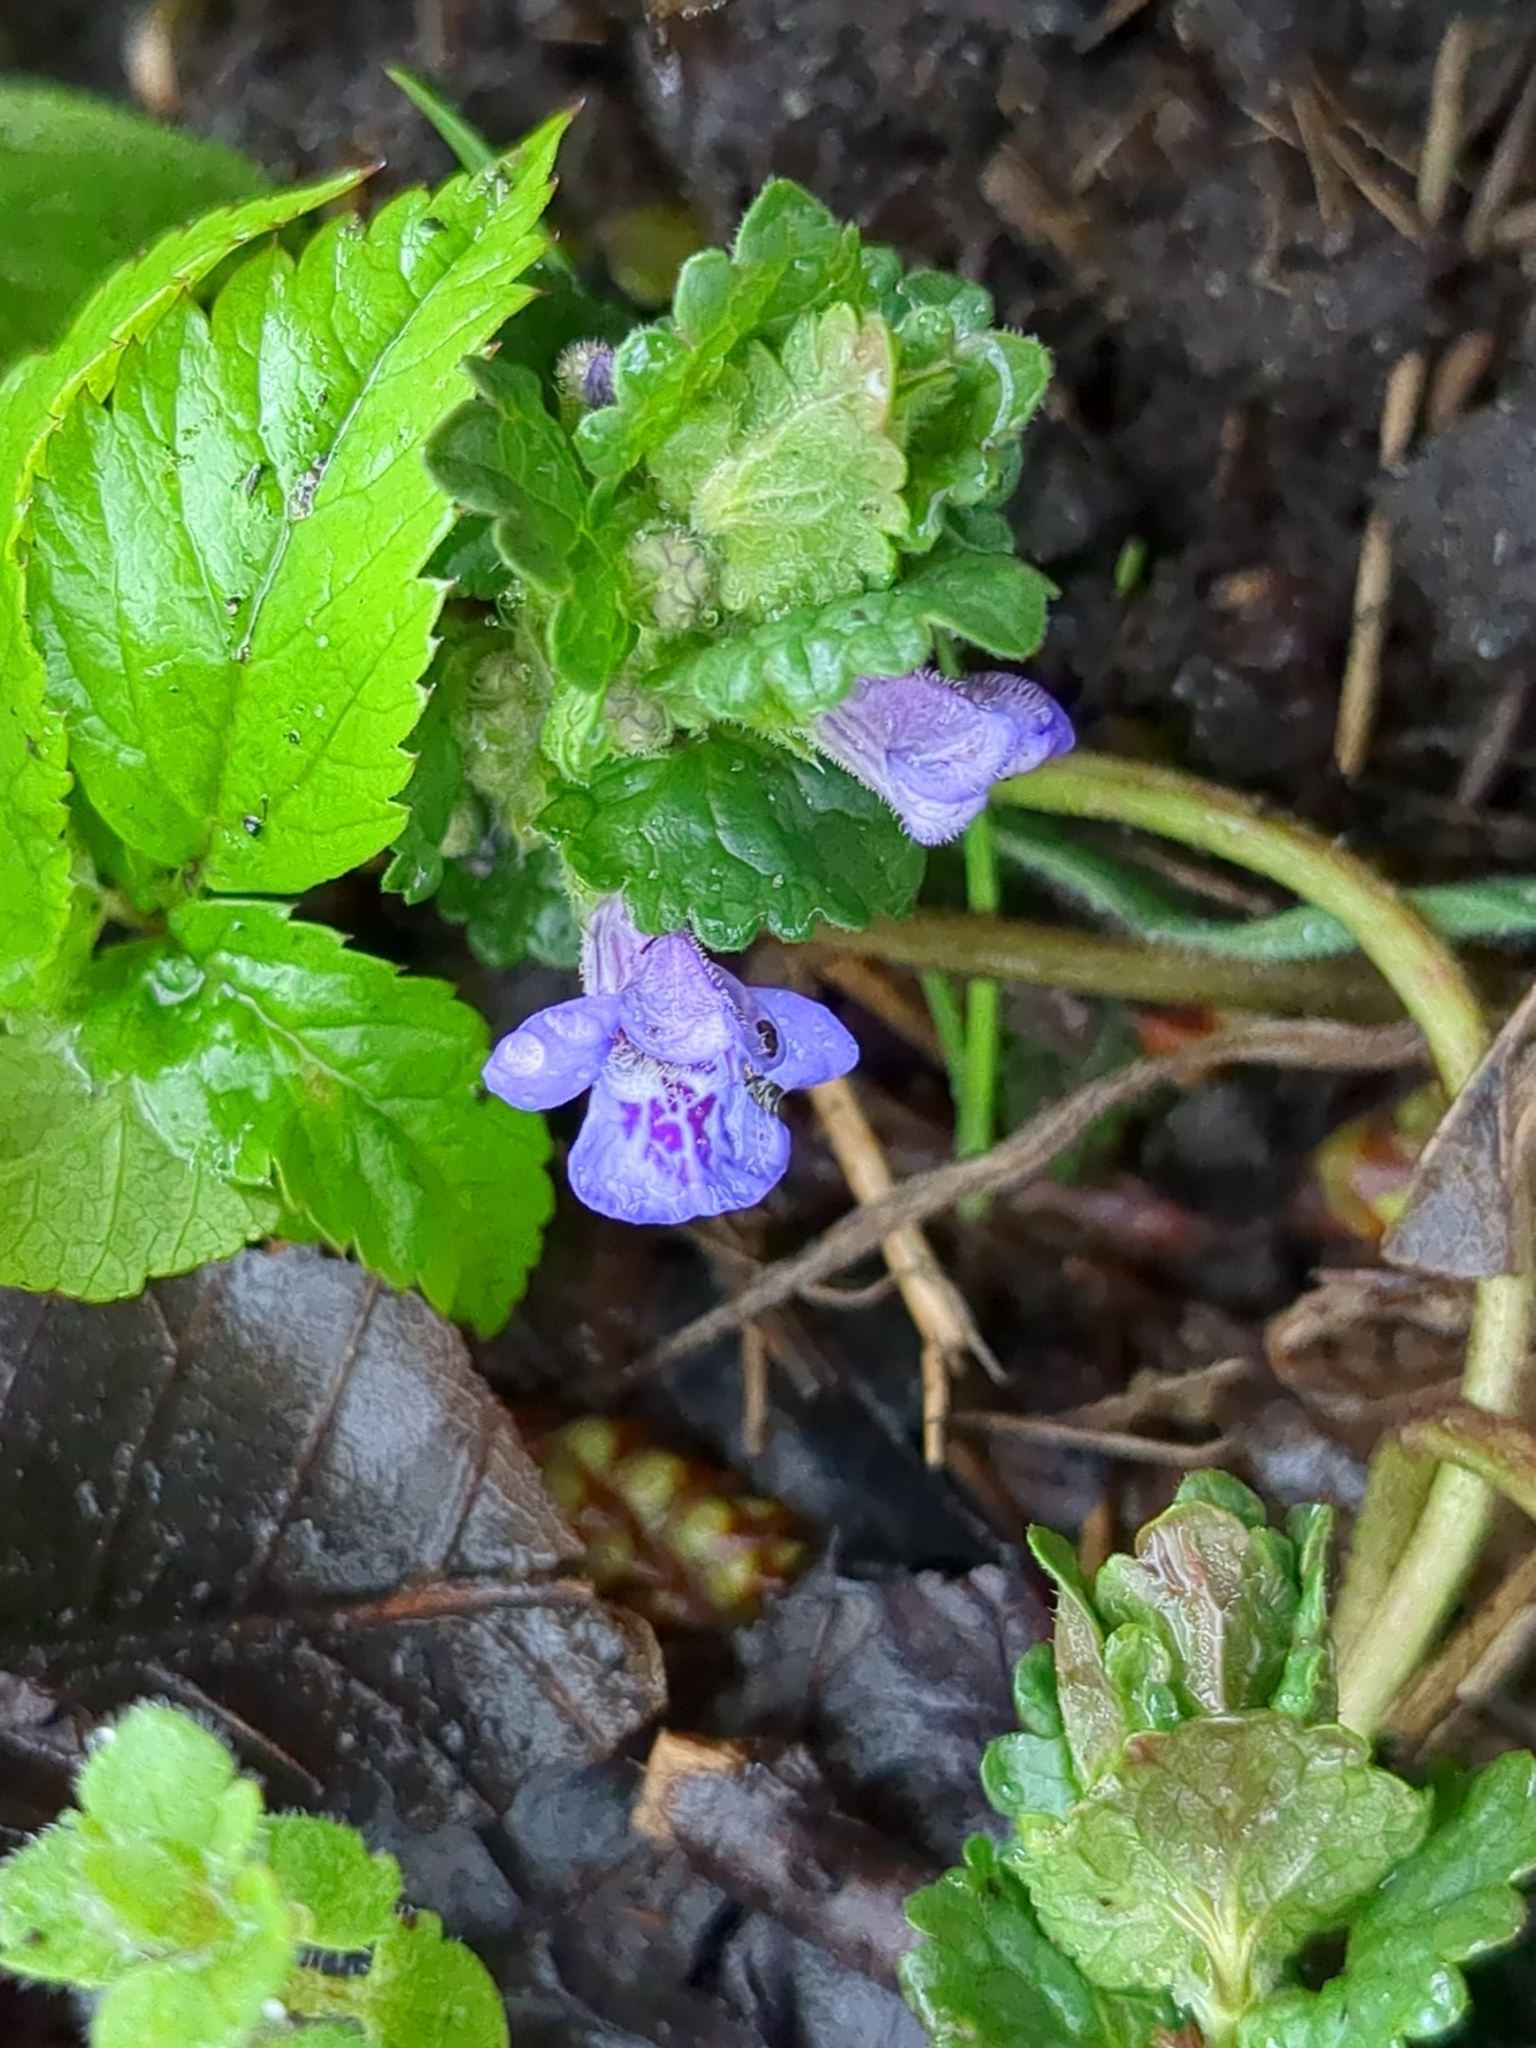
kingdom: Plantae
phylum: Tracheophyta
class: Magnoliopsida
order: Lamiales
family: Lamiaceae
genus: Glechoma
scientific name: Glechoma hederacea
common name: Ground ivy
